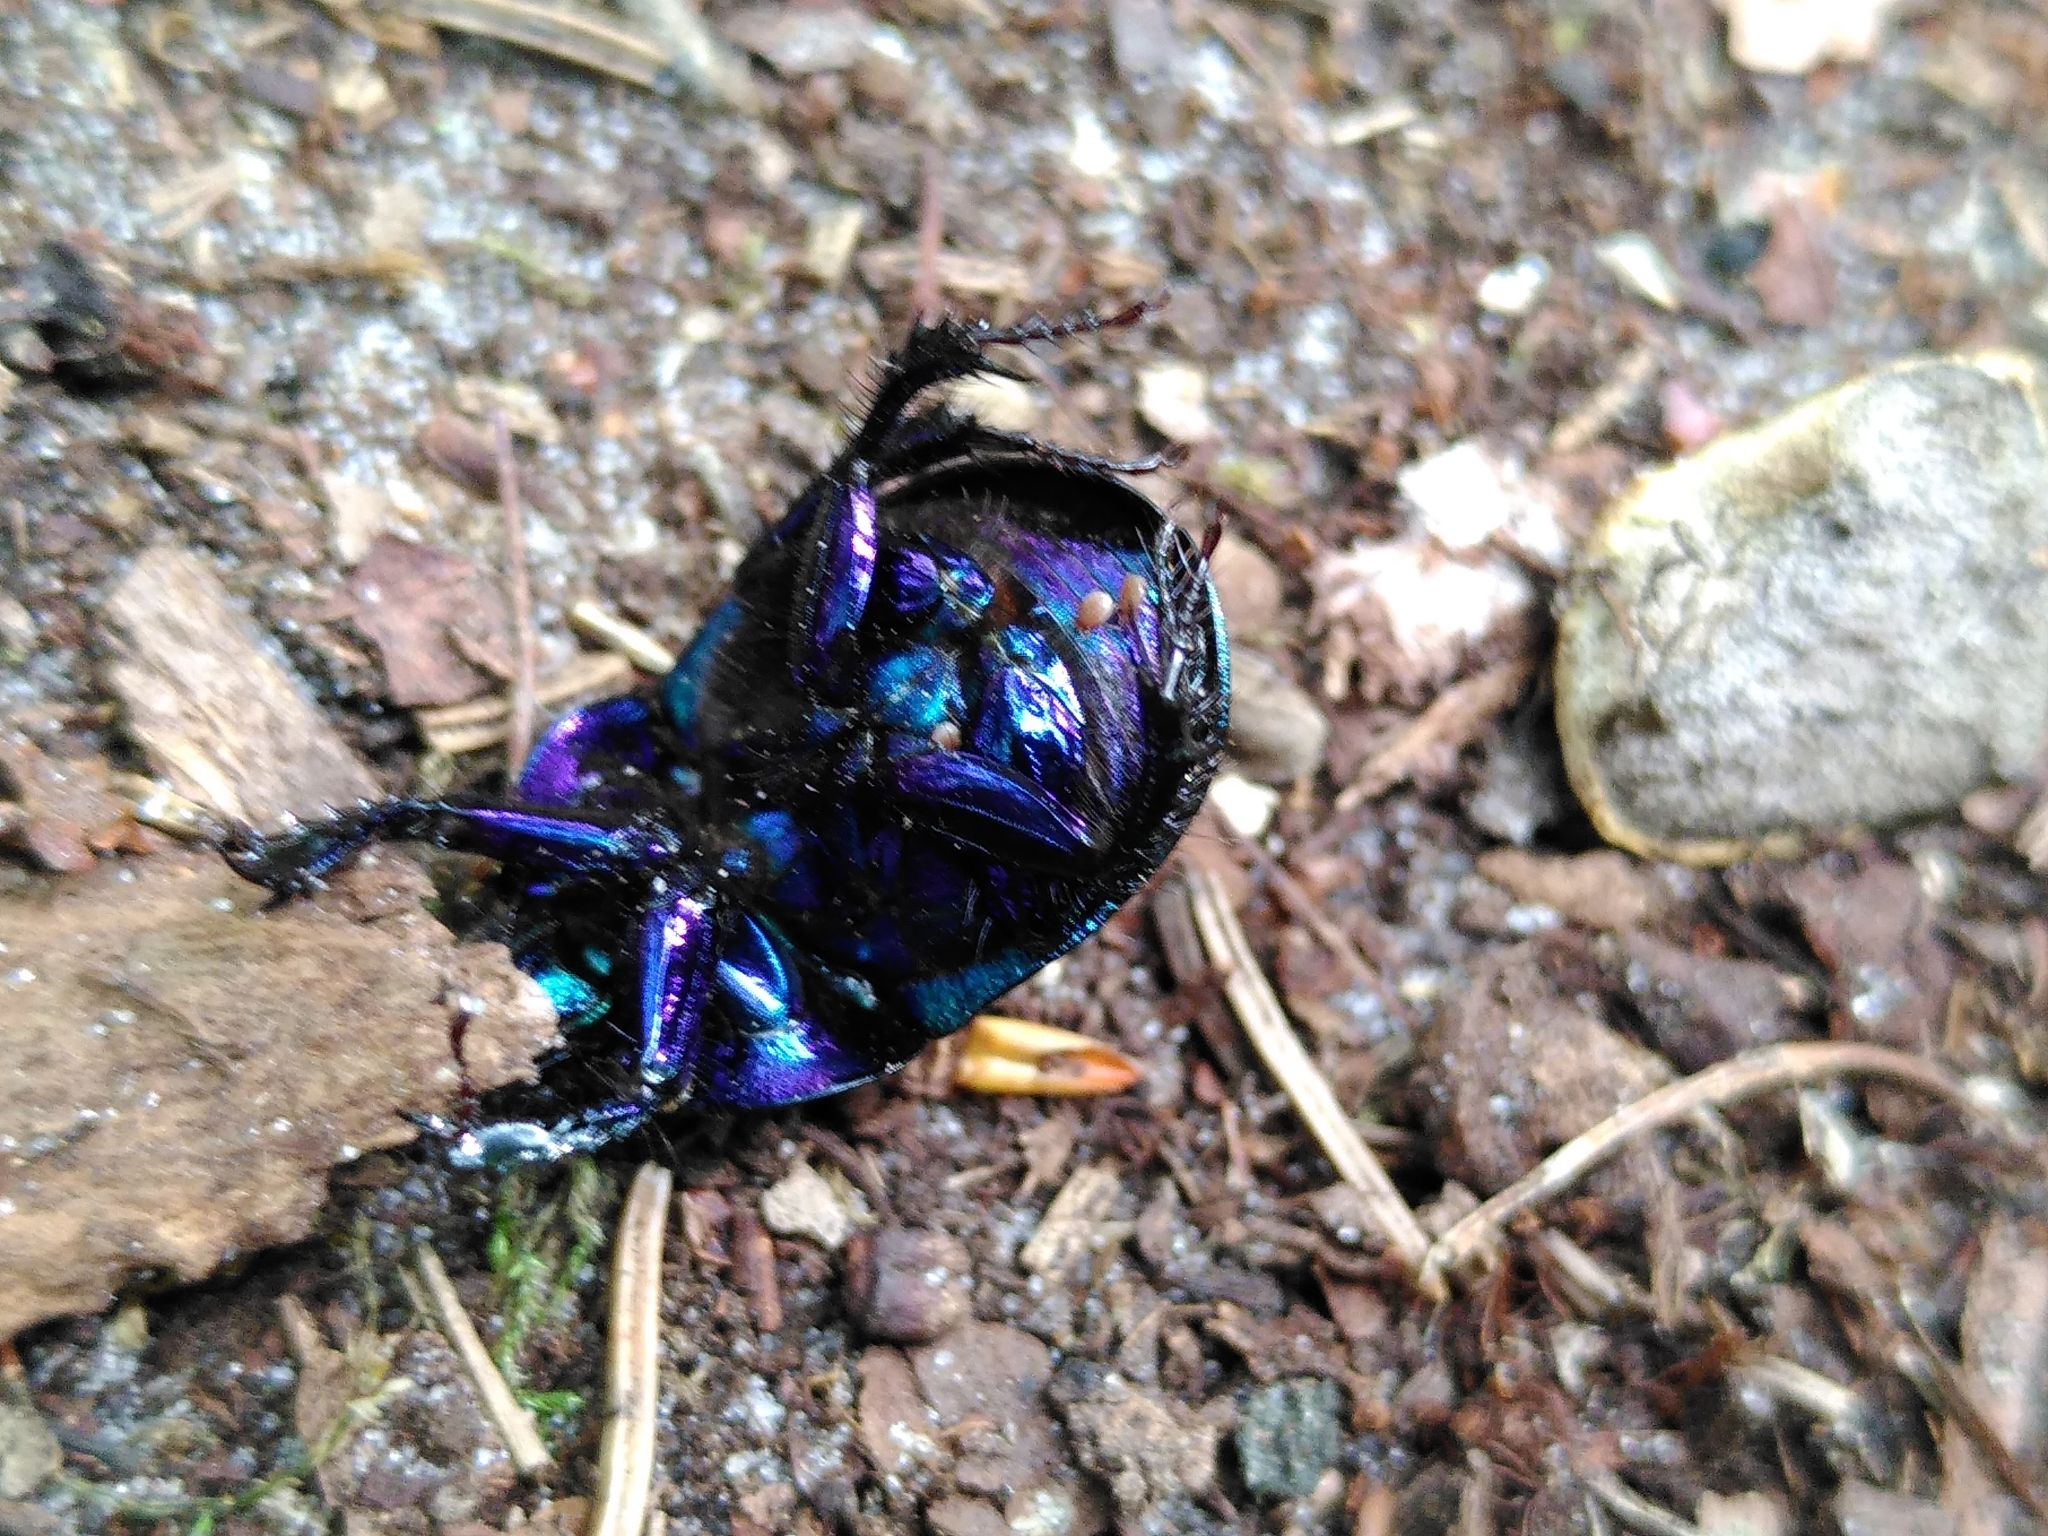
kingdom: Animalia
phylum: Arthropoda
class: Insecta
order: Coleoptera
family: Geotrupidae
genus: Anoplotrupes
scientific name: Anoplotrupes stercorosus
